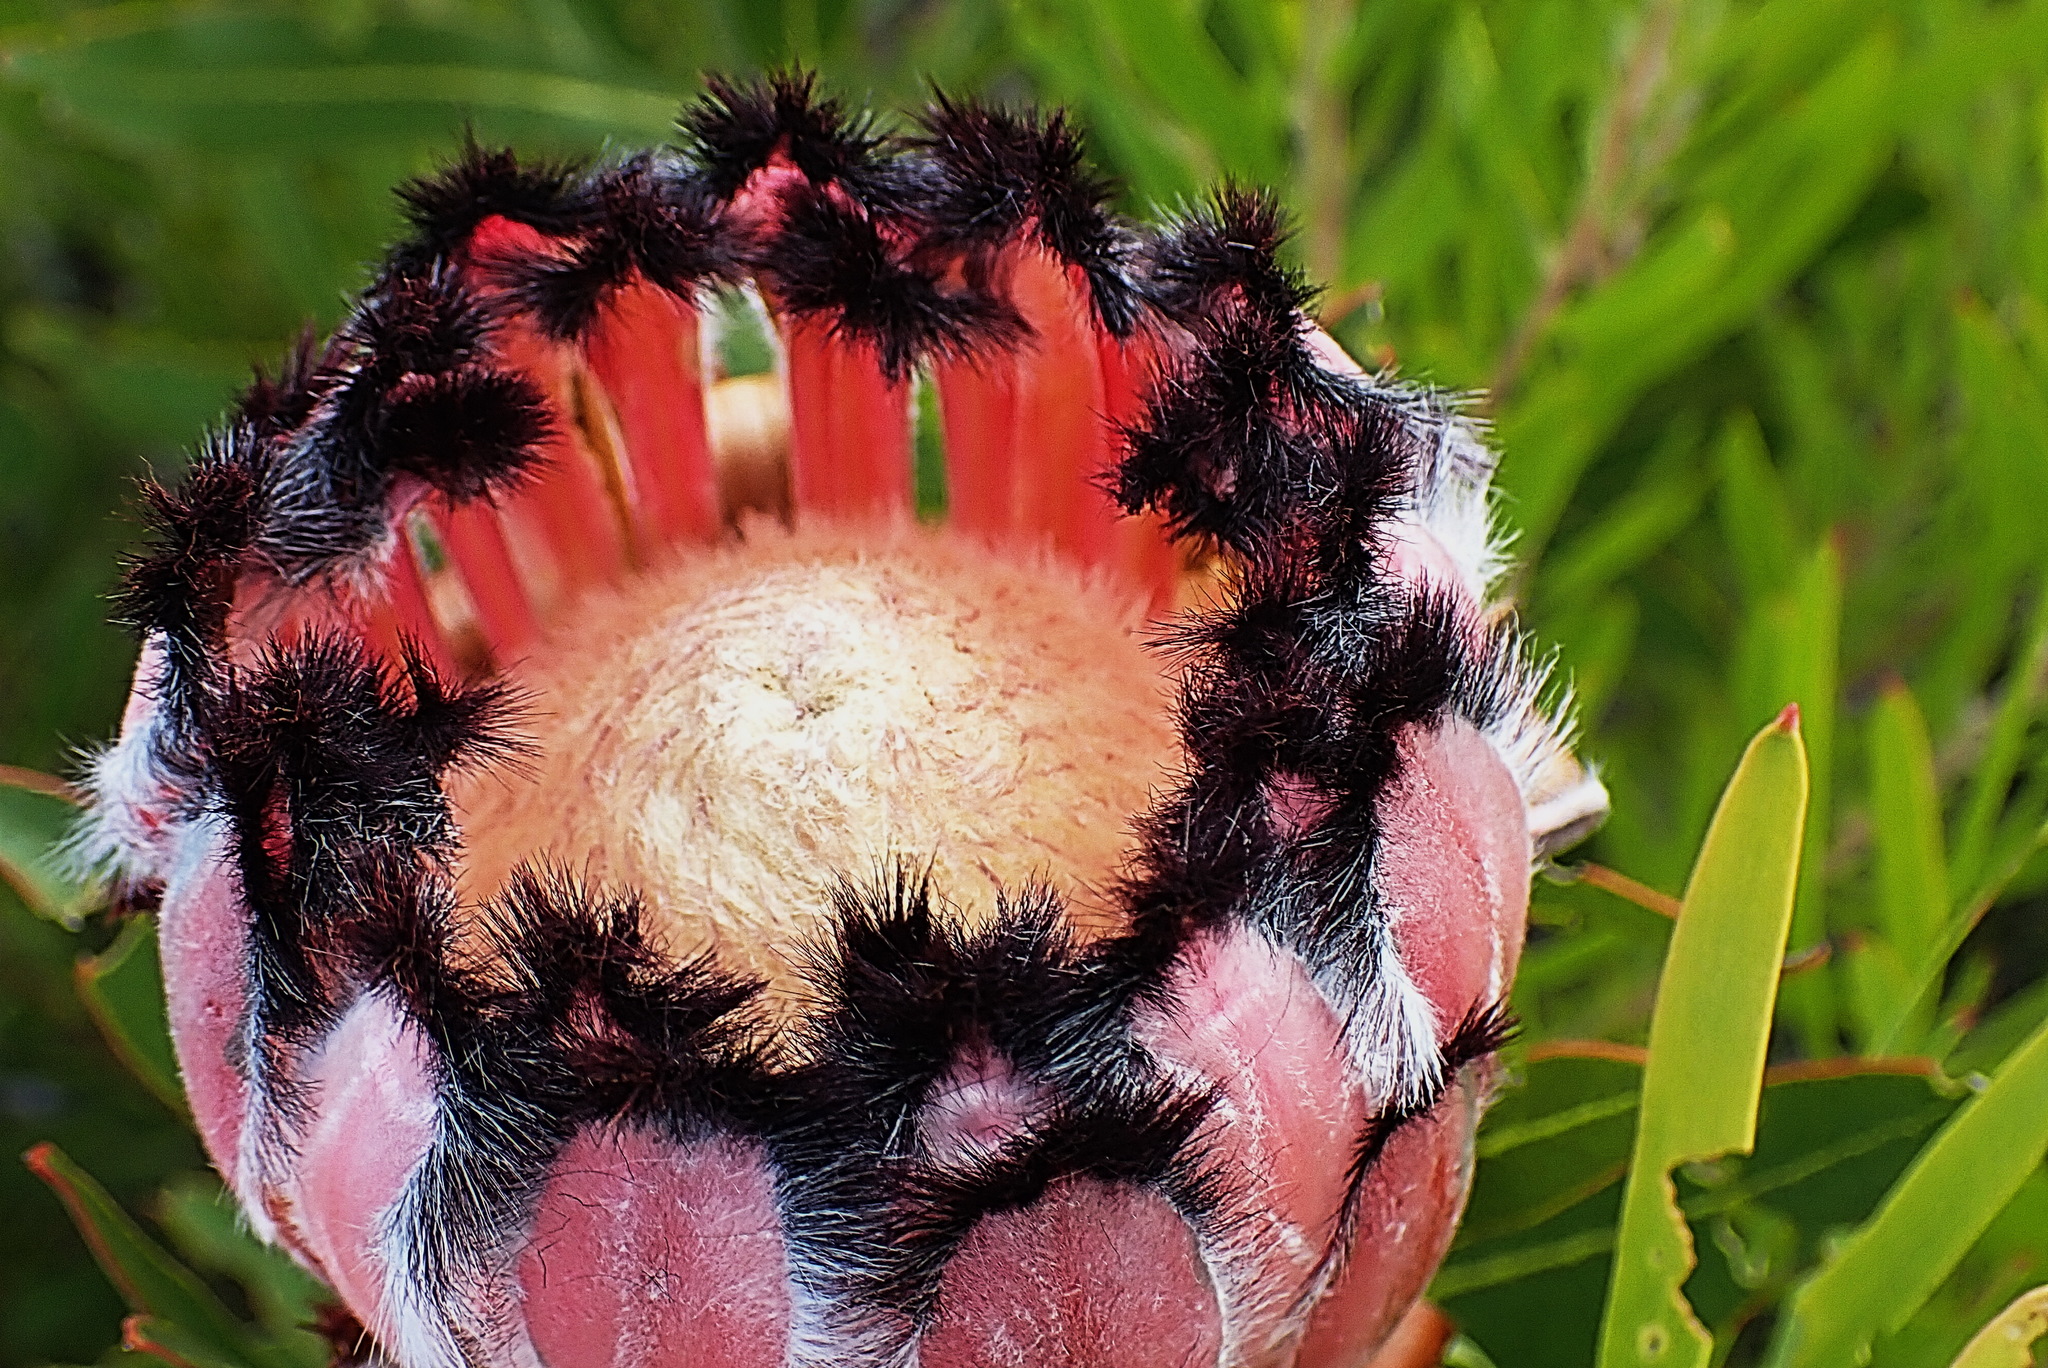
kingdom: Plantae
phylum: Tracheophyta
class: Magnoliopsida
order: Proteales
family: Proteaceae
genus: Protea
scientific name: Protea neriifolia
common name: Blue sugarbush
